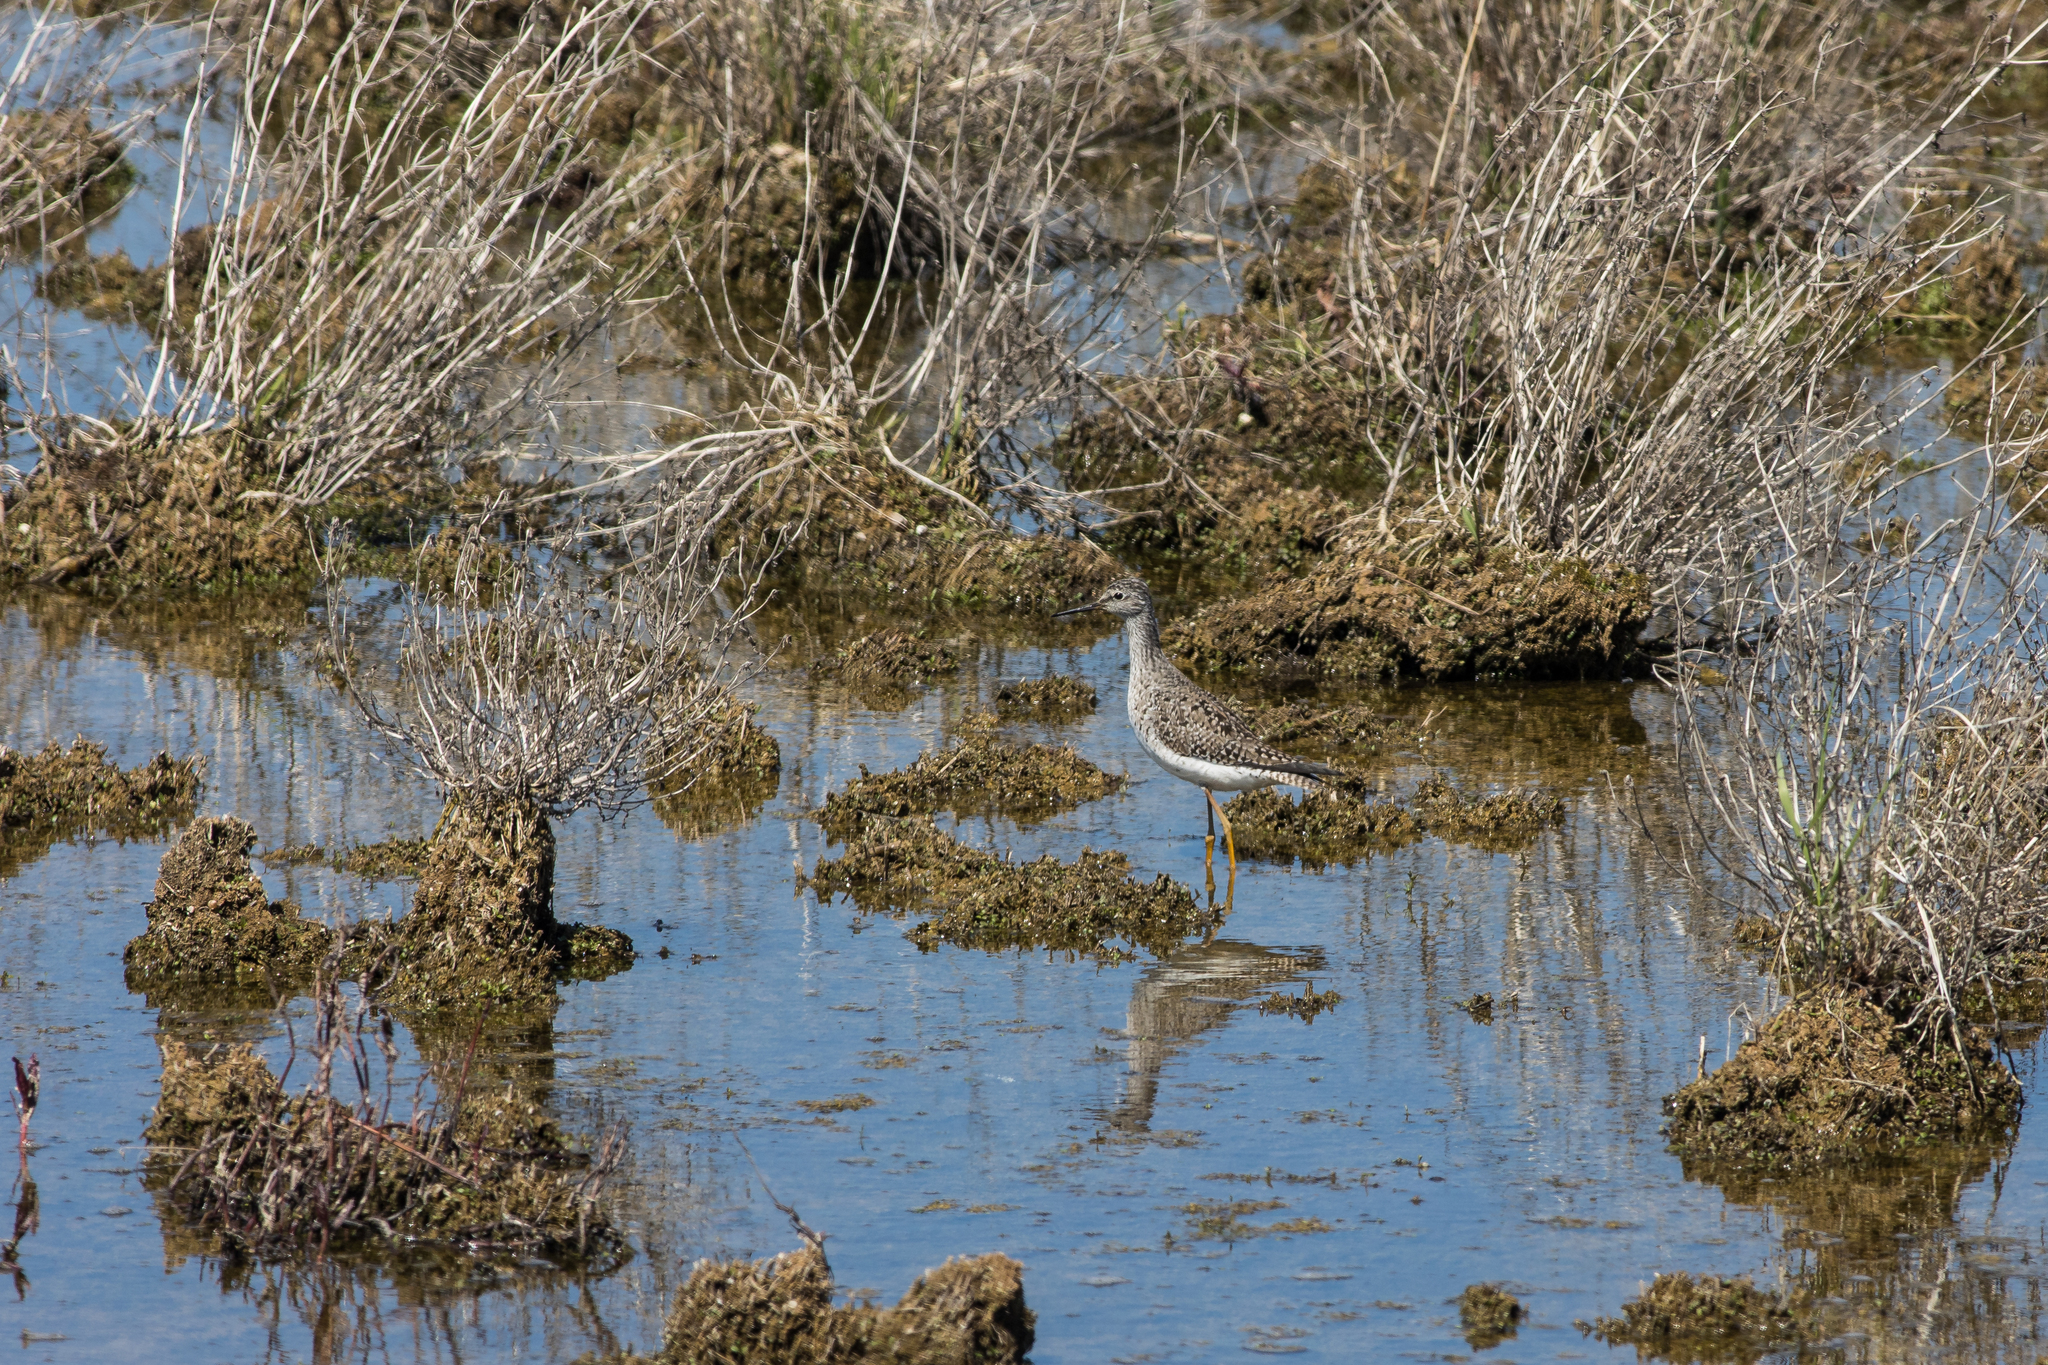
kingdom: Animalia
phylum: Chordata
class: Aves
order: Charadriiformes
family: Scolopacidae
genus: Tringa
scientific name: Tringa flavipes
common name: Lesser yellowlegs
